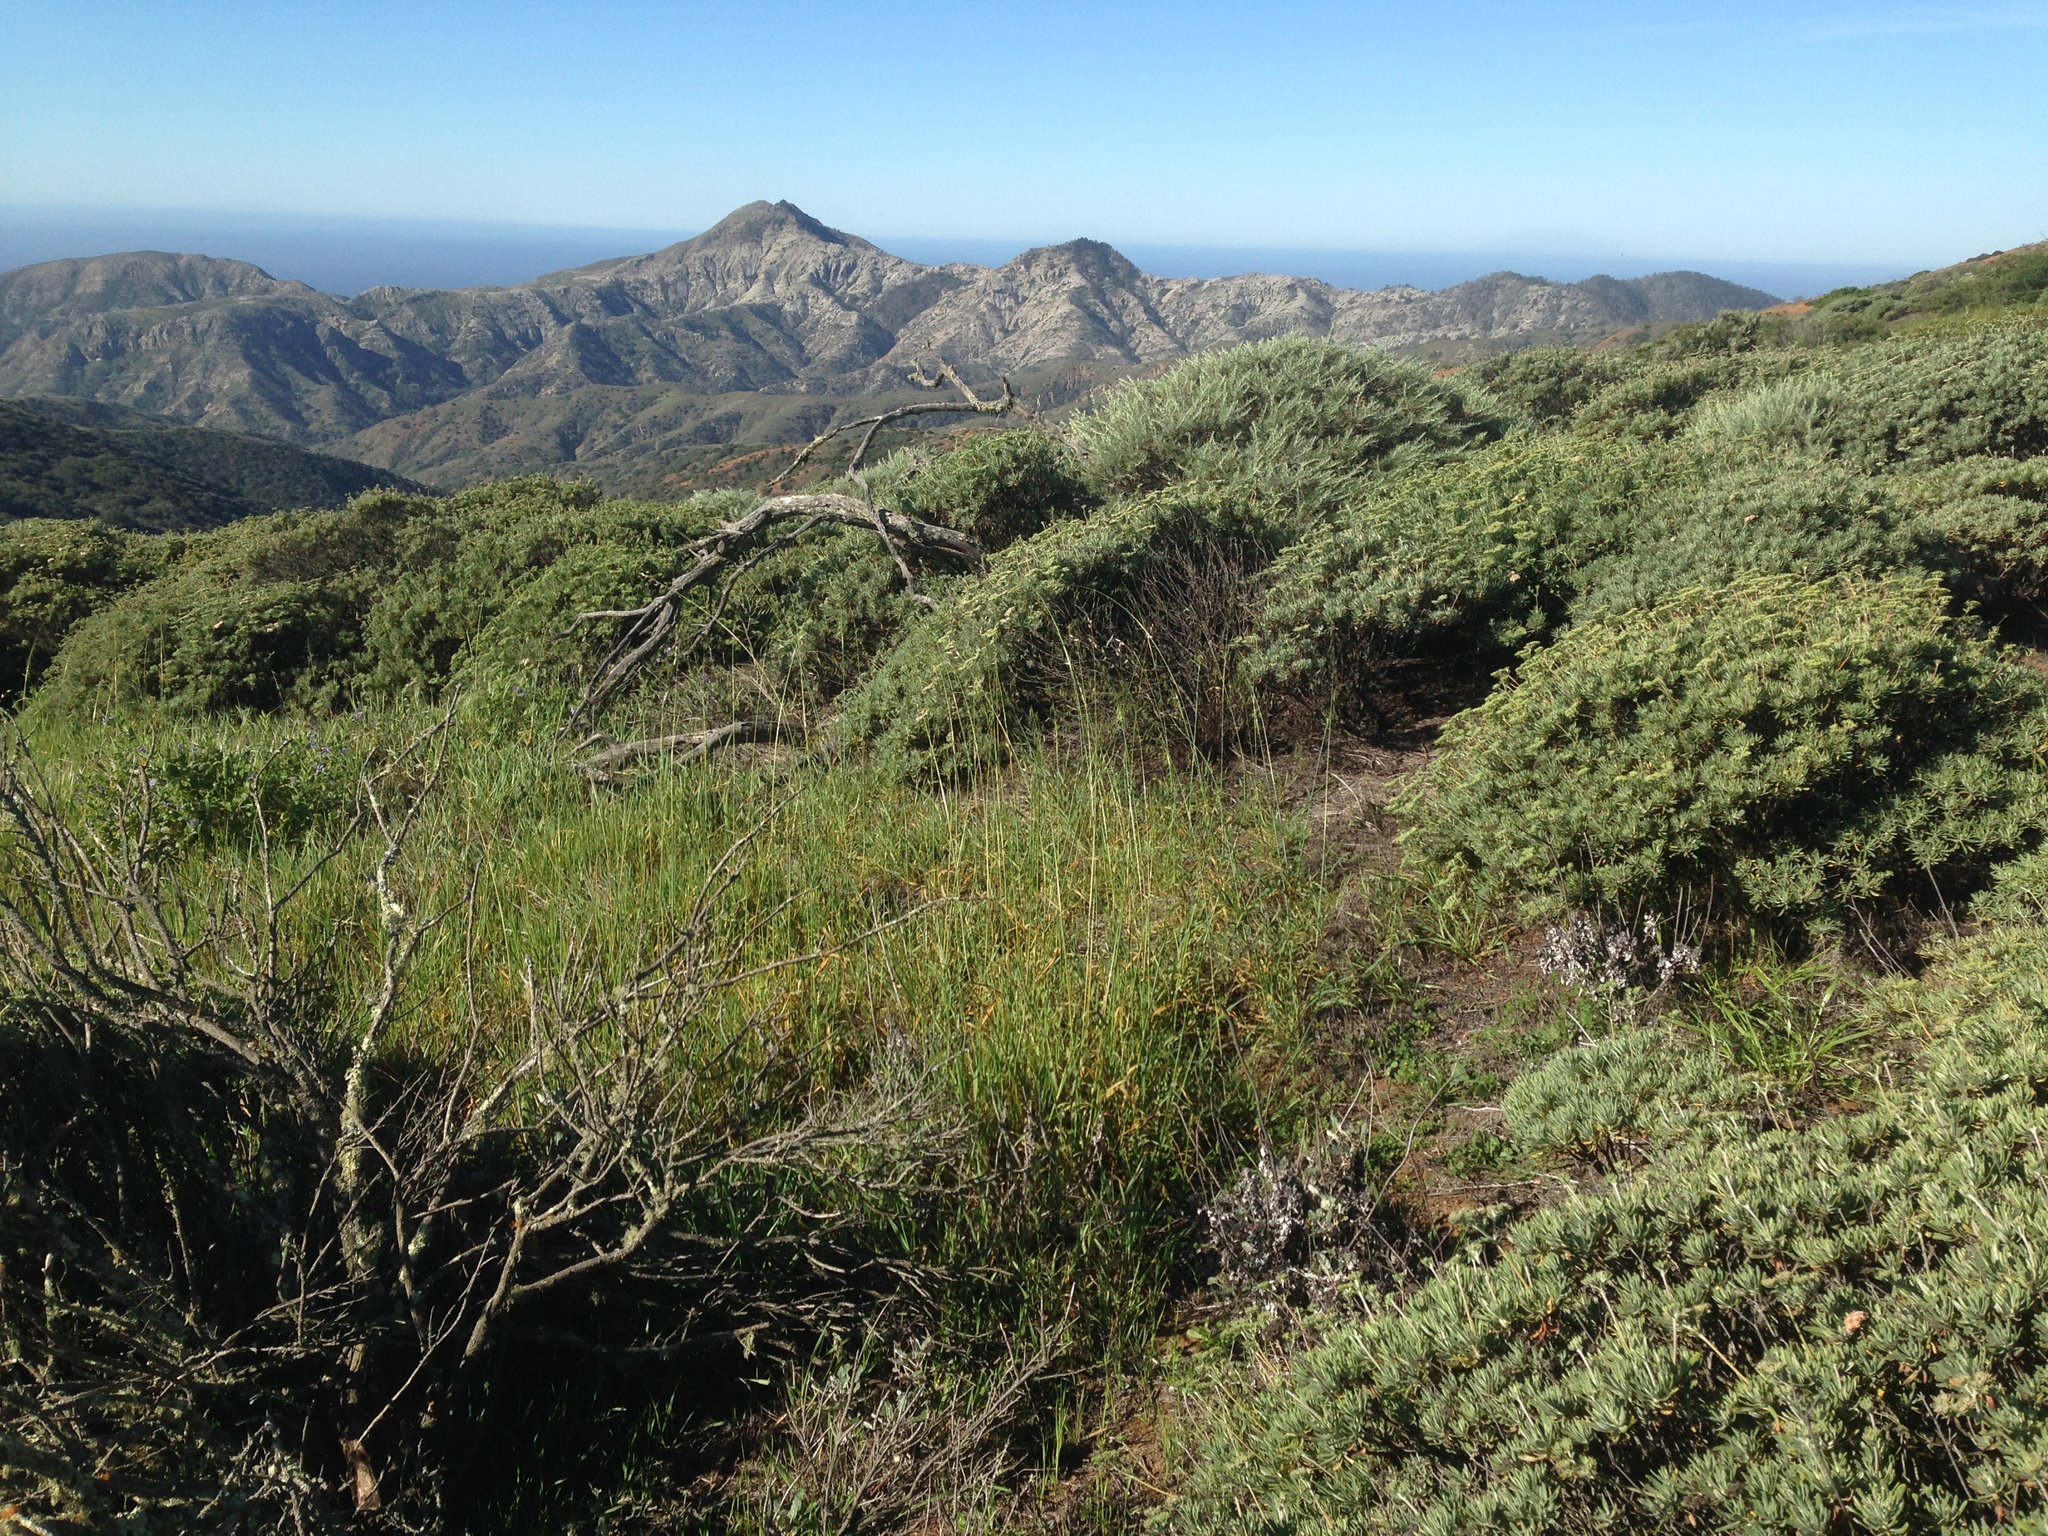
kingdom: Plantae
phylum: Tracheophyta
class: Magnoliopsida
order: Caryophyllales
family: Polygonaceae
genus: Eriogonum
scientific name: Eriogonum arborescens
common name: Island buckwheat
